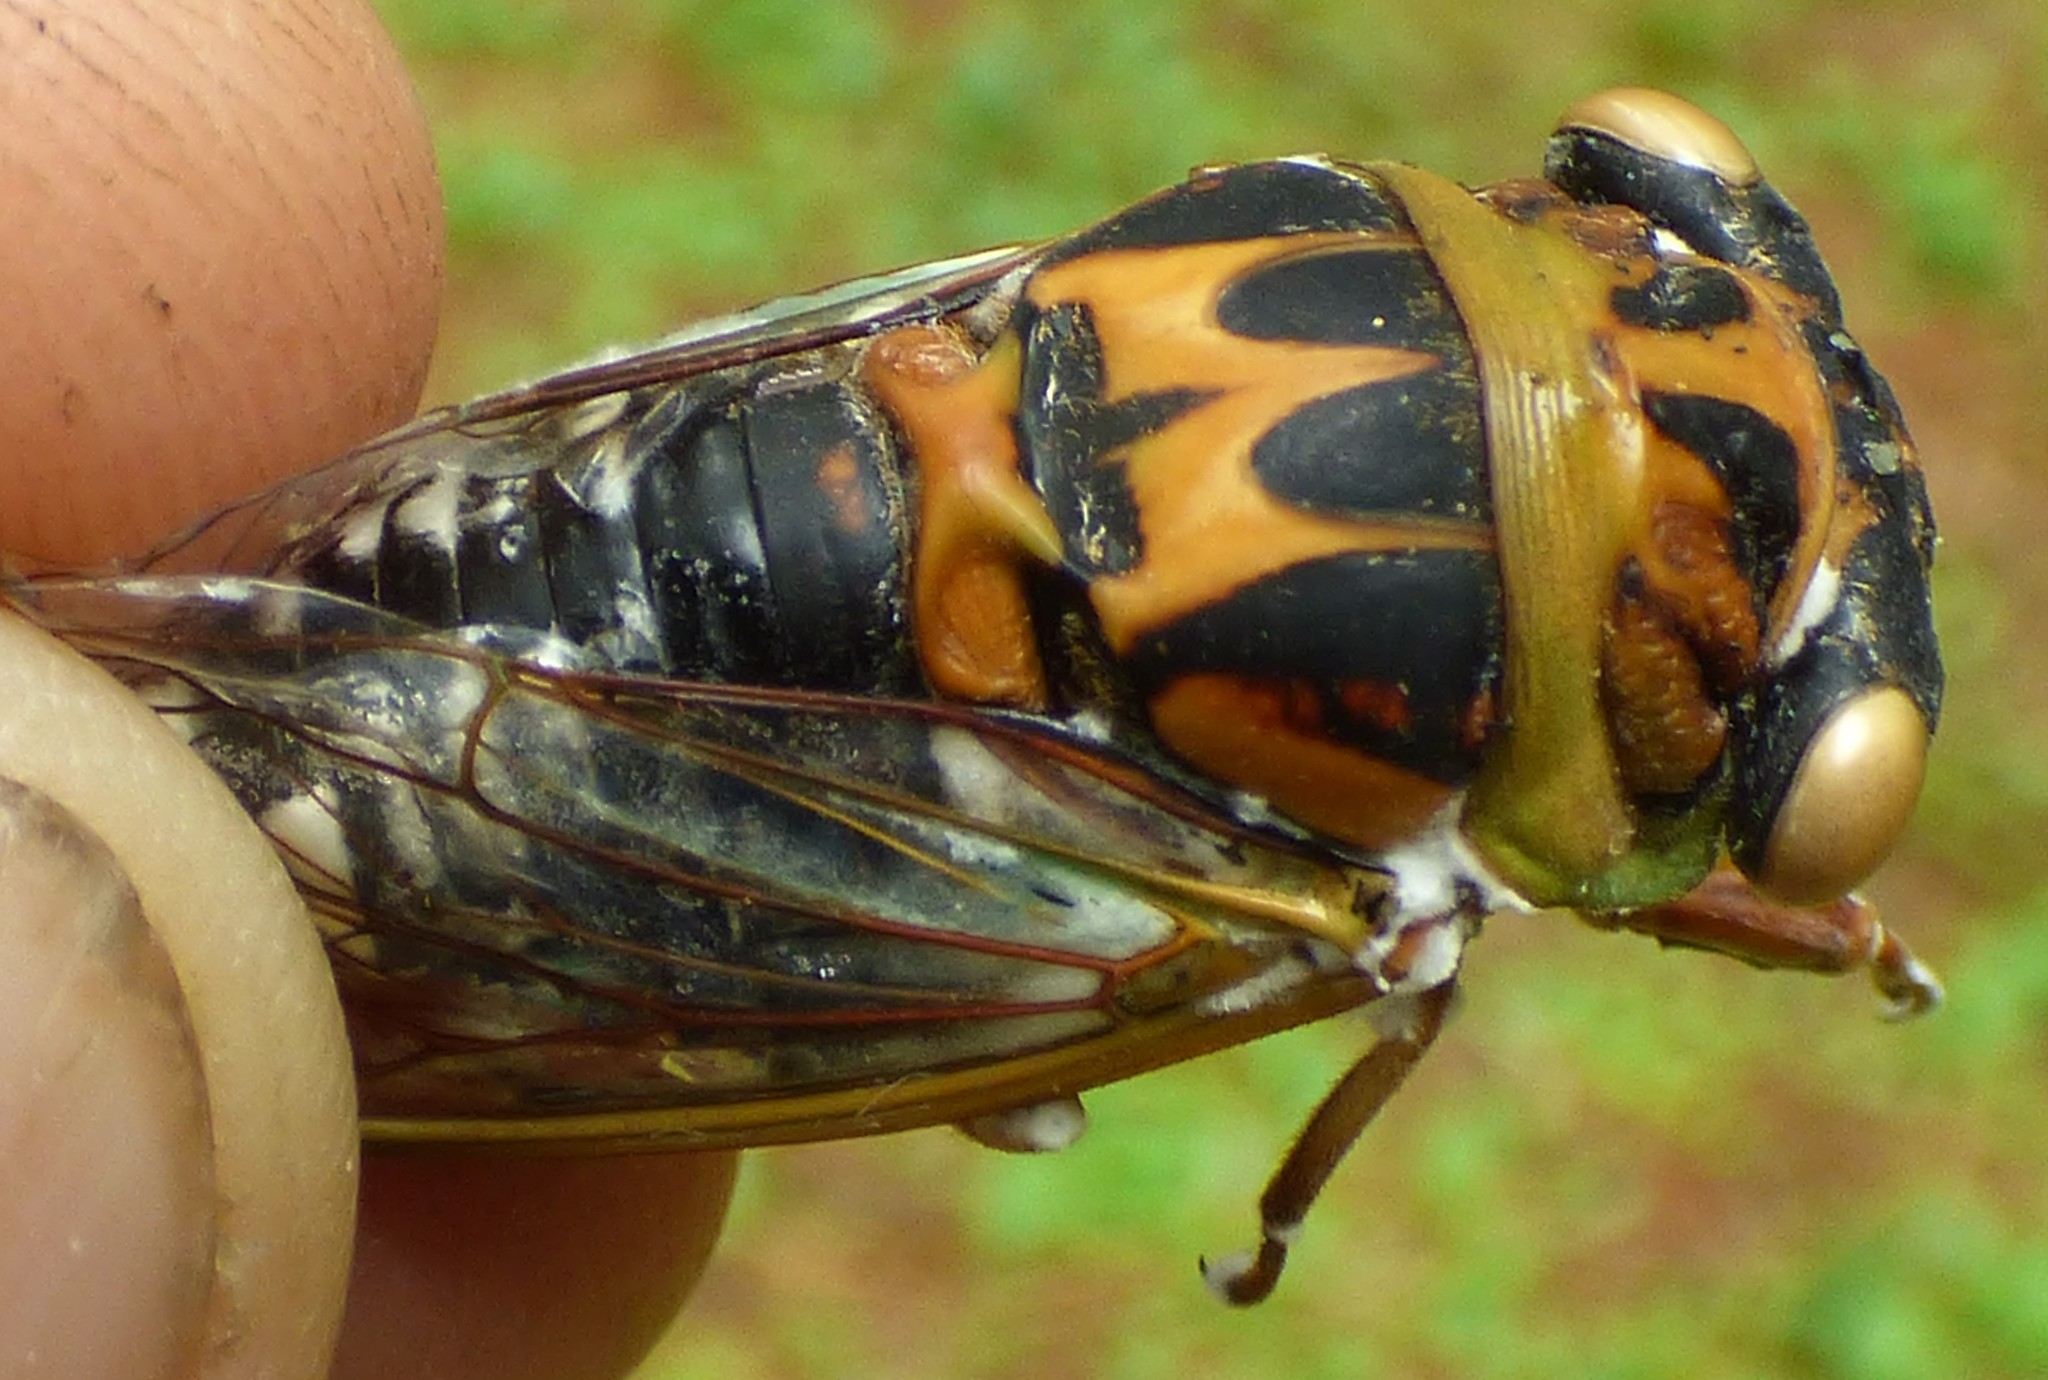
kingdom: Animalia
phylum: Arthropoda
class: Insecta
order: Hemiptera
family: Cicadidae
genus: Neotibicen
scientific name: Neotibicen davisi
